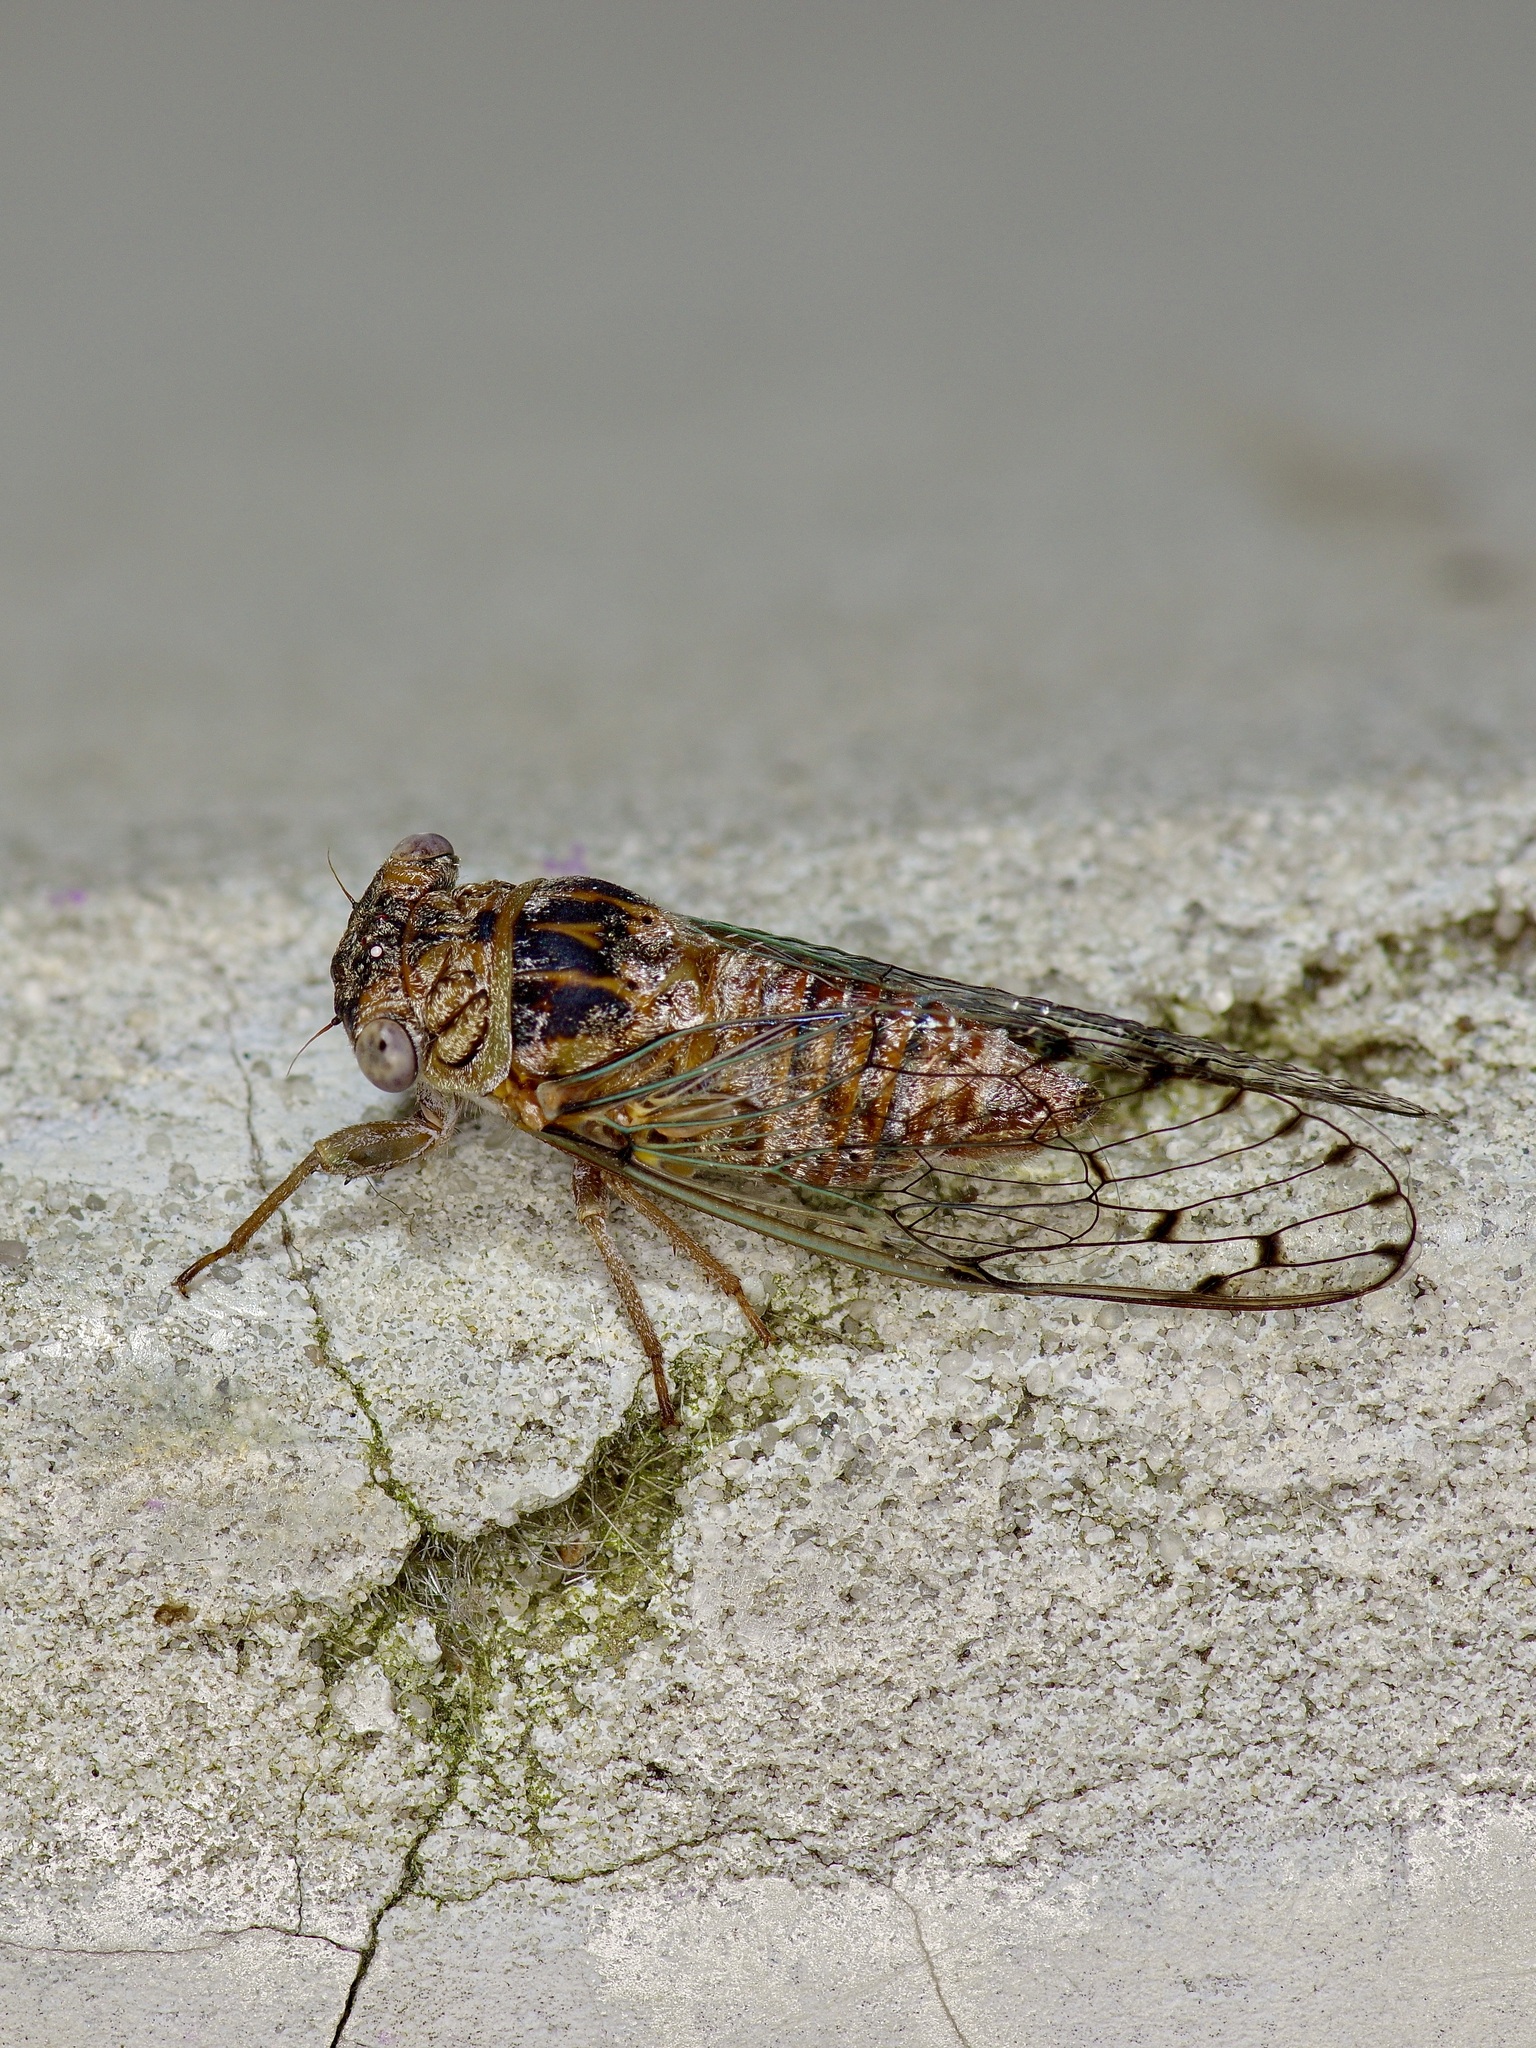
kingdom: Animalia
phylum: Arthropoda
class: Insecta
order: Hemiptera
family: Cicadidae
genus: Pacarina
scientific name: Pacarina puella
